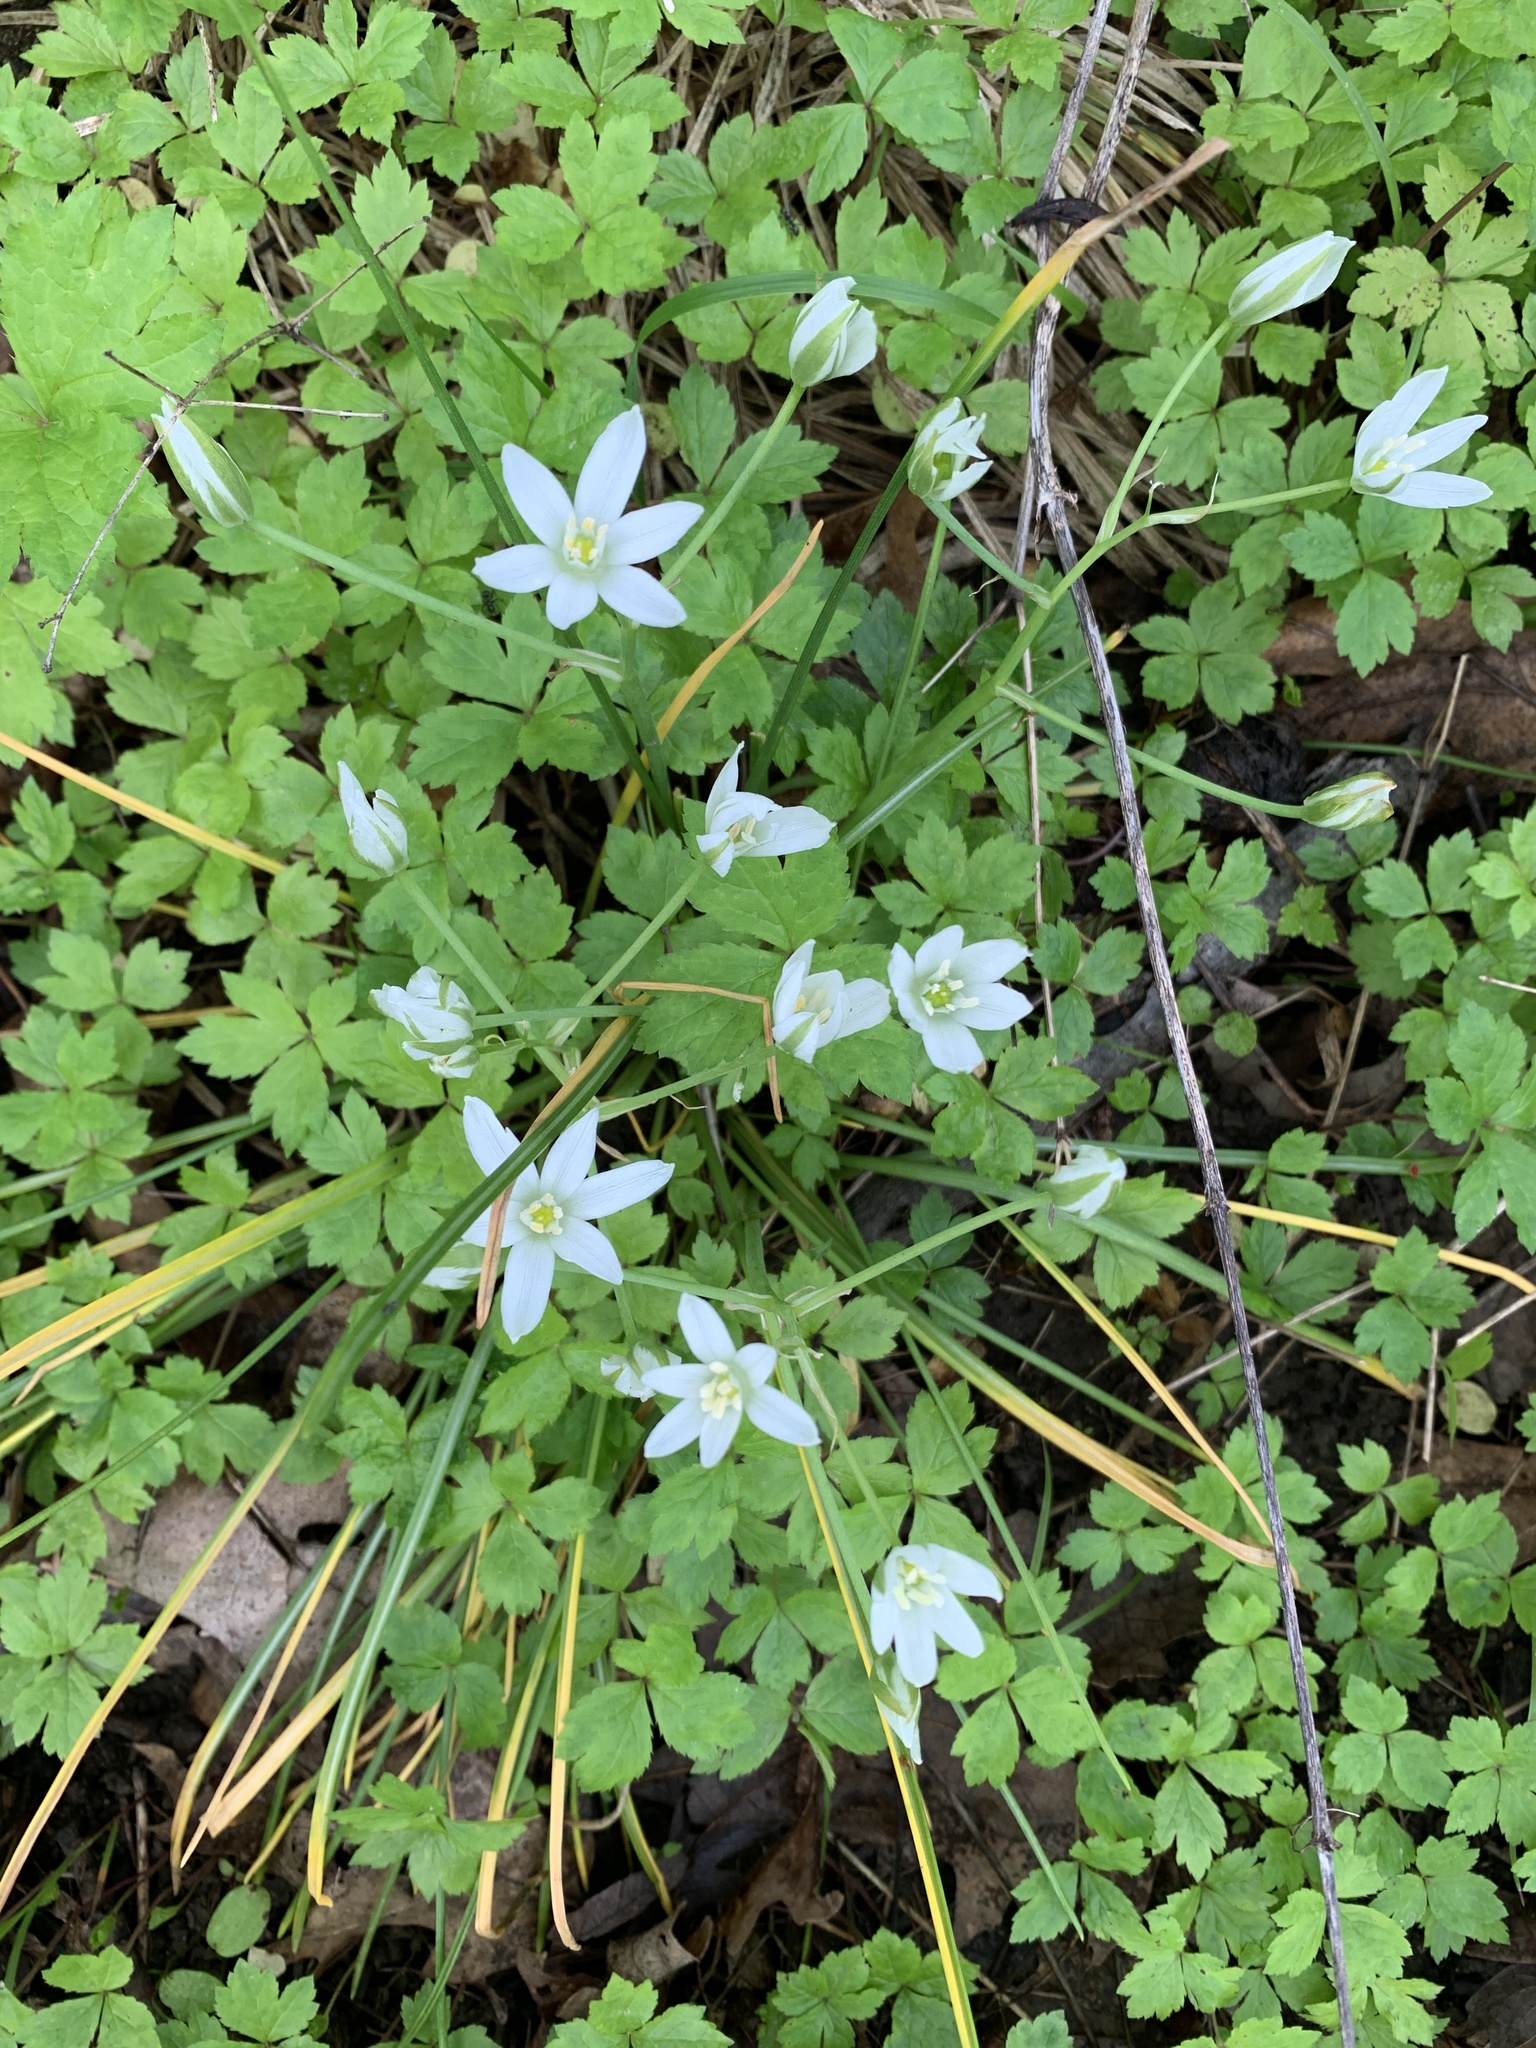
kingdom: Plantae
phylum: Tracheophyta
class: Liliopsida
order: Asparagales
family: Asparagaceae
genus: Ornithogalum
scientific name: Ornithogalum umbellatum
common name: Garden star-of-bethlehem
